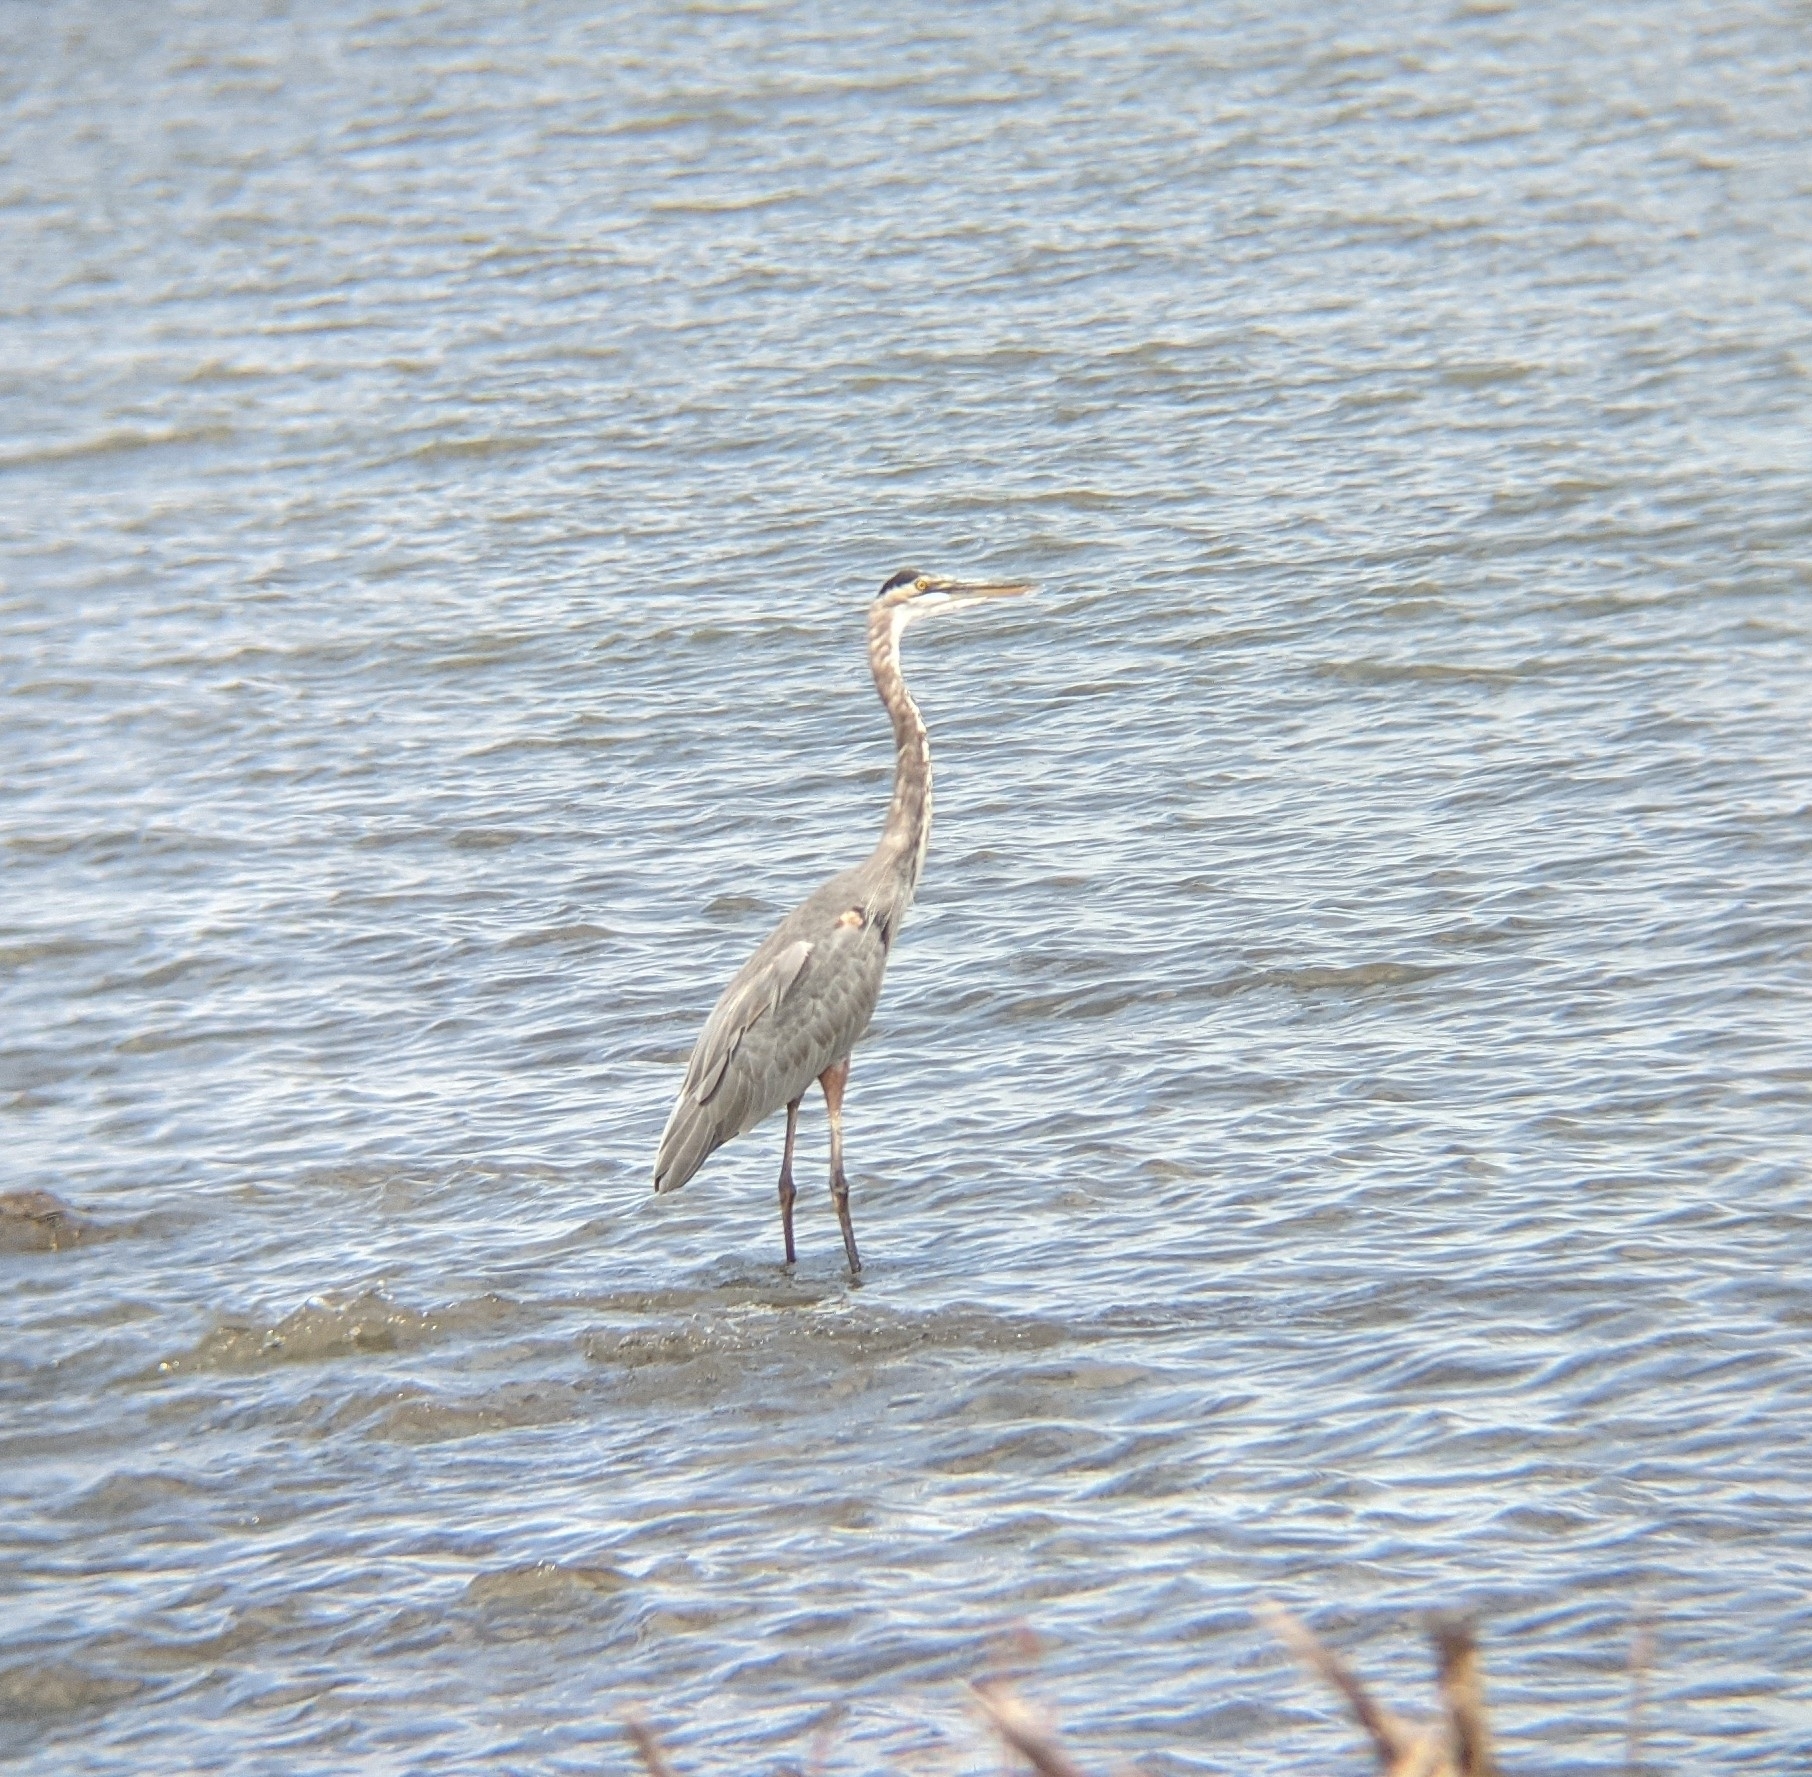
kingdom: Animalia
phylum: Chordata
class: Aves
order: Pelecaniformes
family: Ardeidae
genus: Ardea
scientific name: Ardea herodias
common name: Great blue heron
